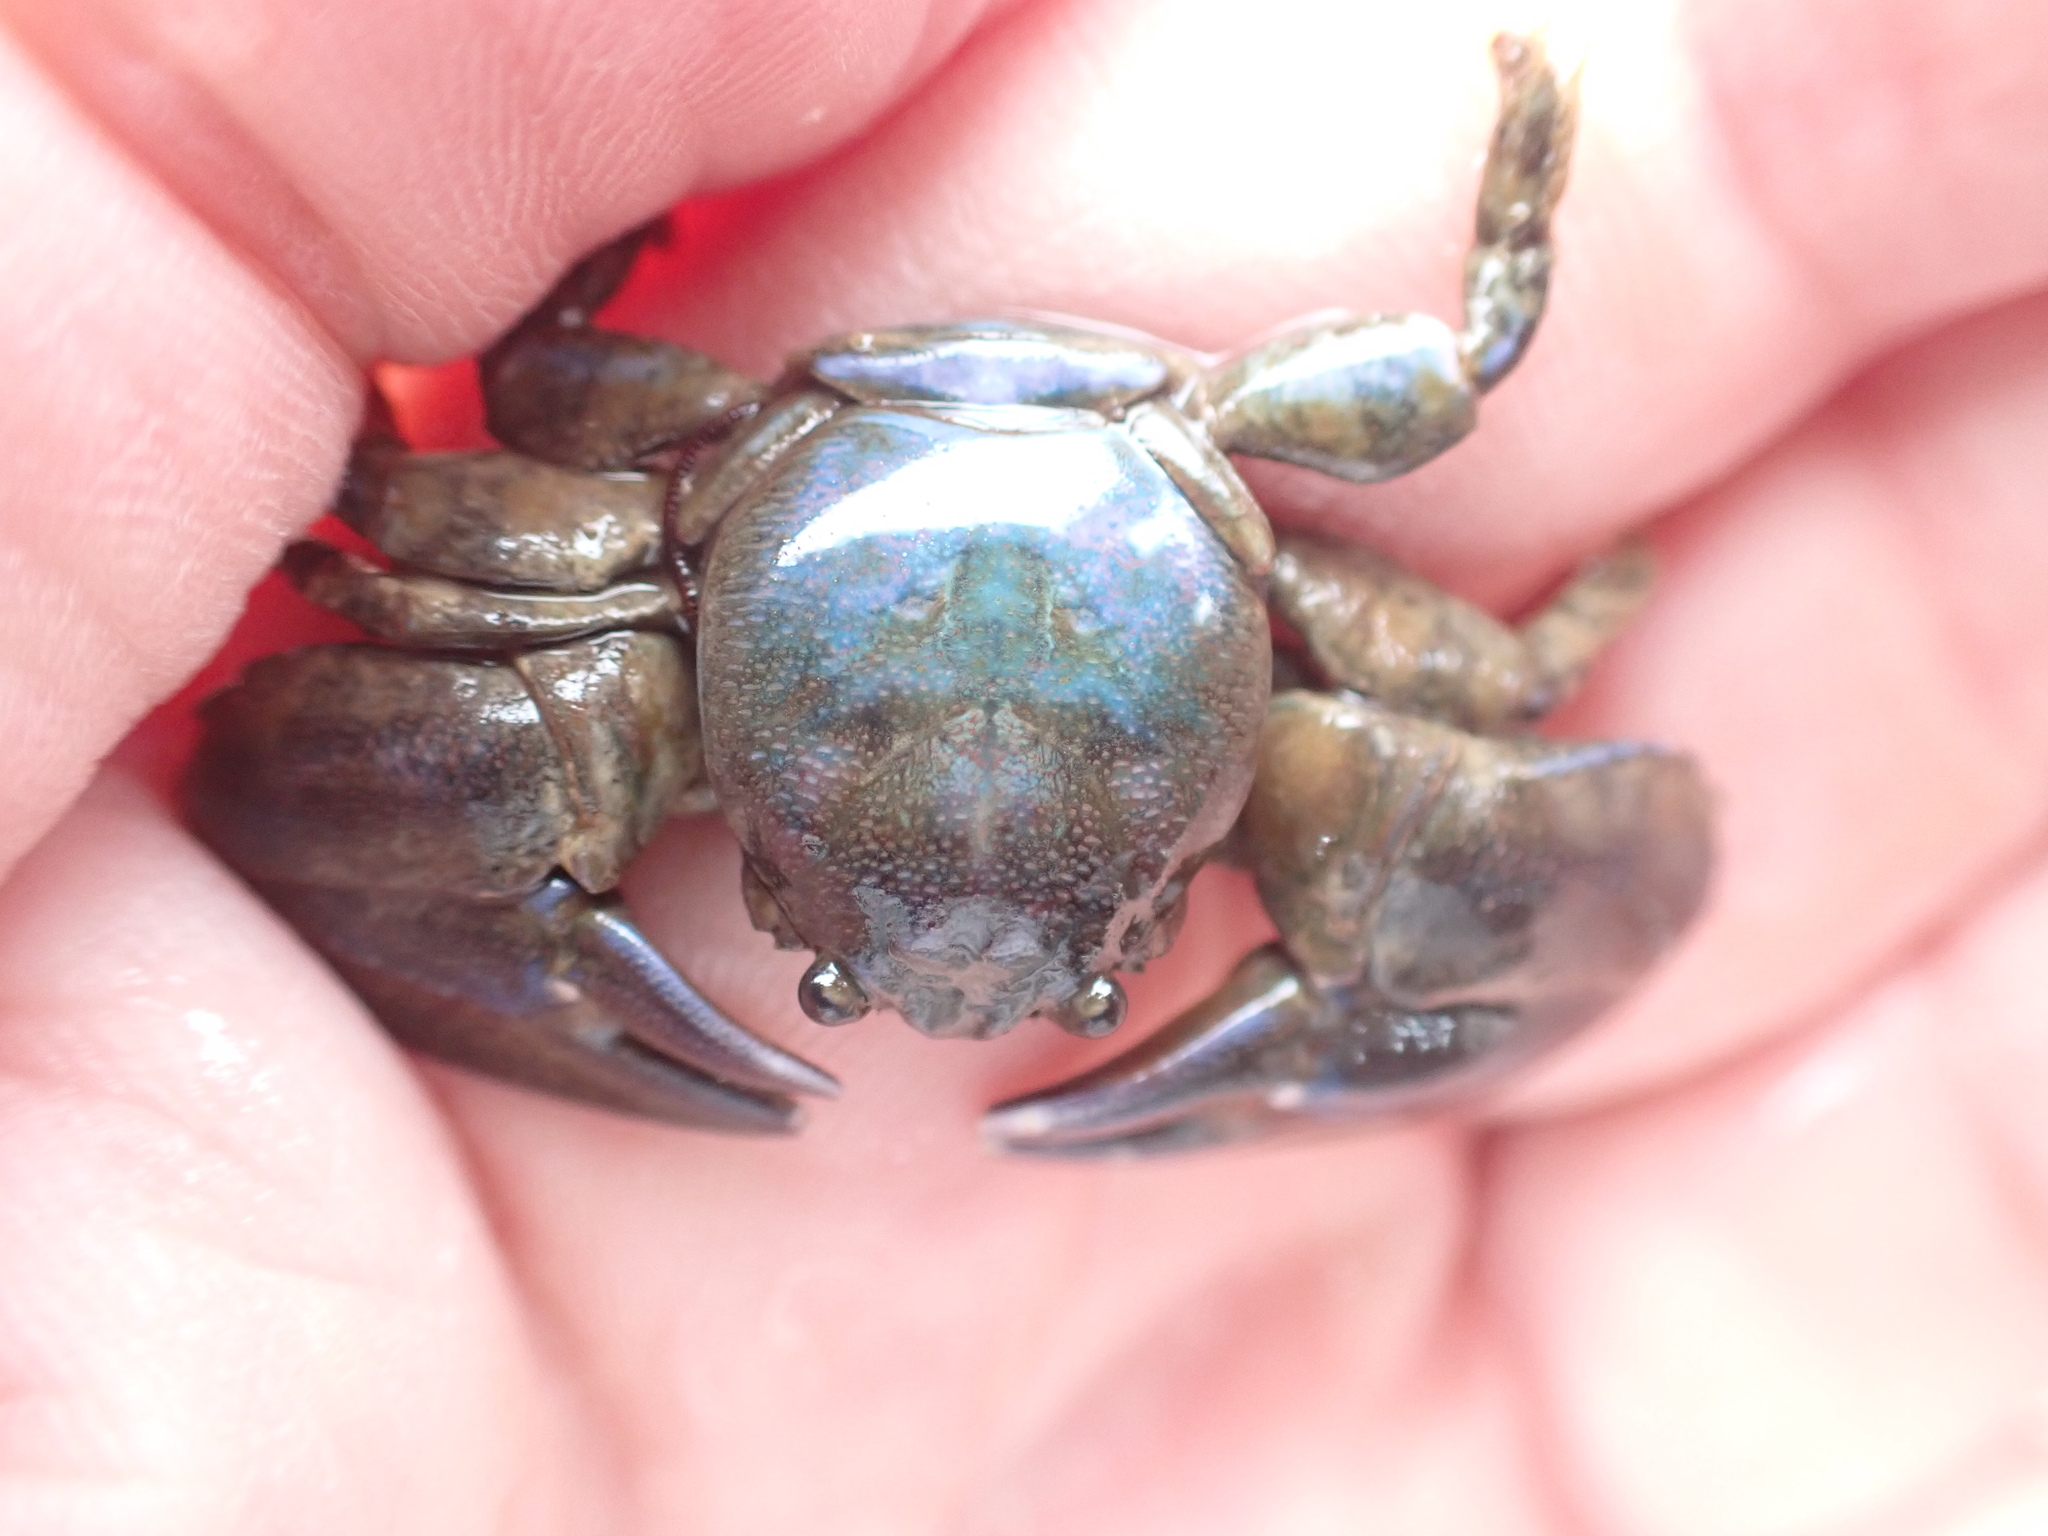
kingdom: Animalia
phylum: Arthropoda
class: Malacostraca
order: Decapoda
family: Porcellanidae
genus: Petrolisthes
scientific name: Petrolisthes elongatus
